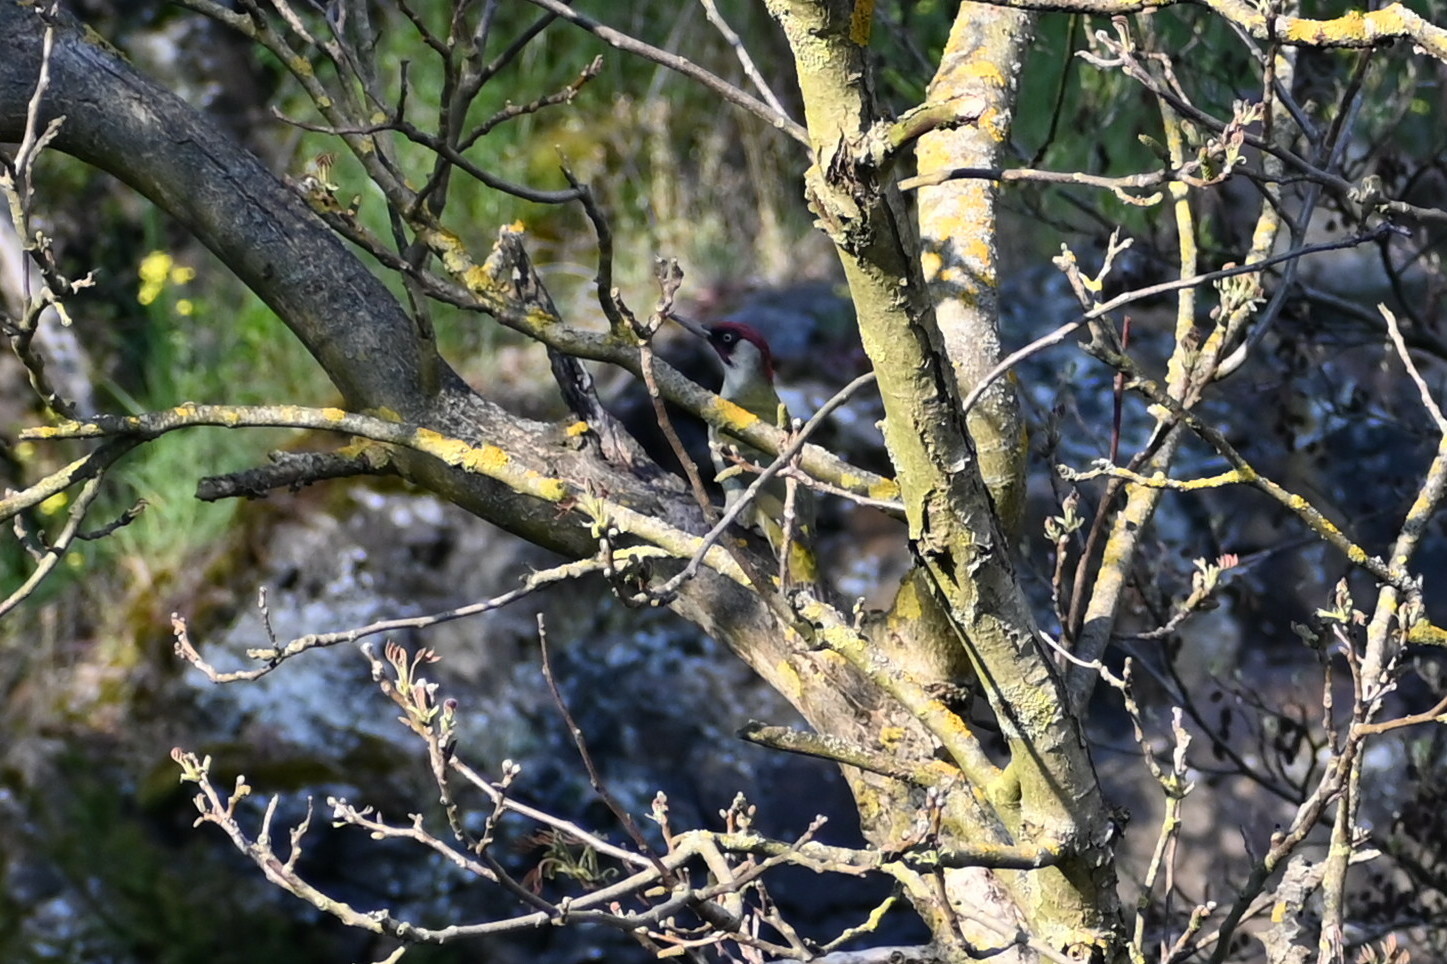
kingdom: Animalia
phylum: Chordata
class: Aves
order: Piciformes
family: Picidae
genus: Picus
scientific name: Picus viridis
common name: European green woodpecker
